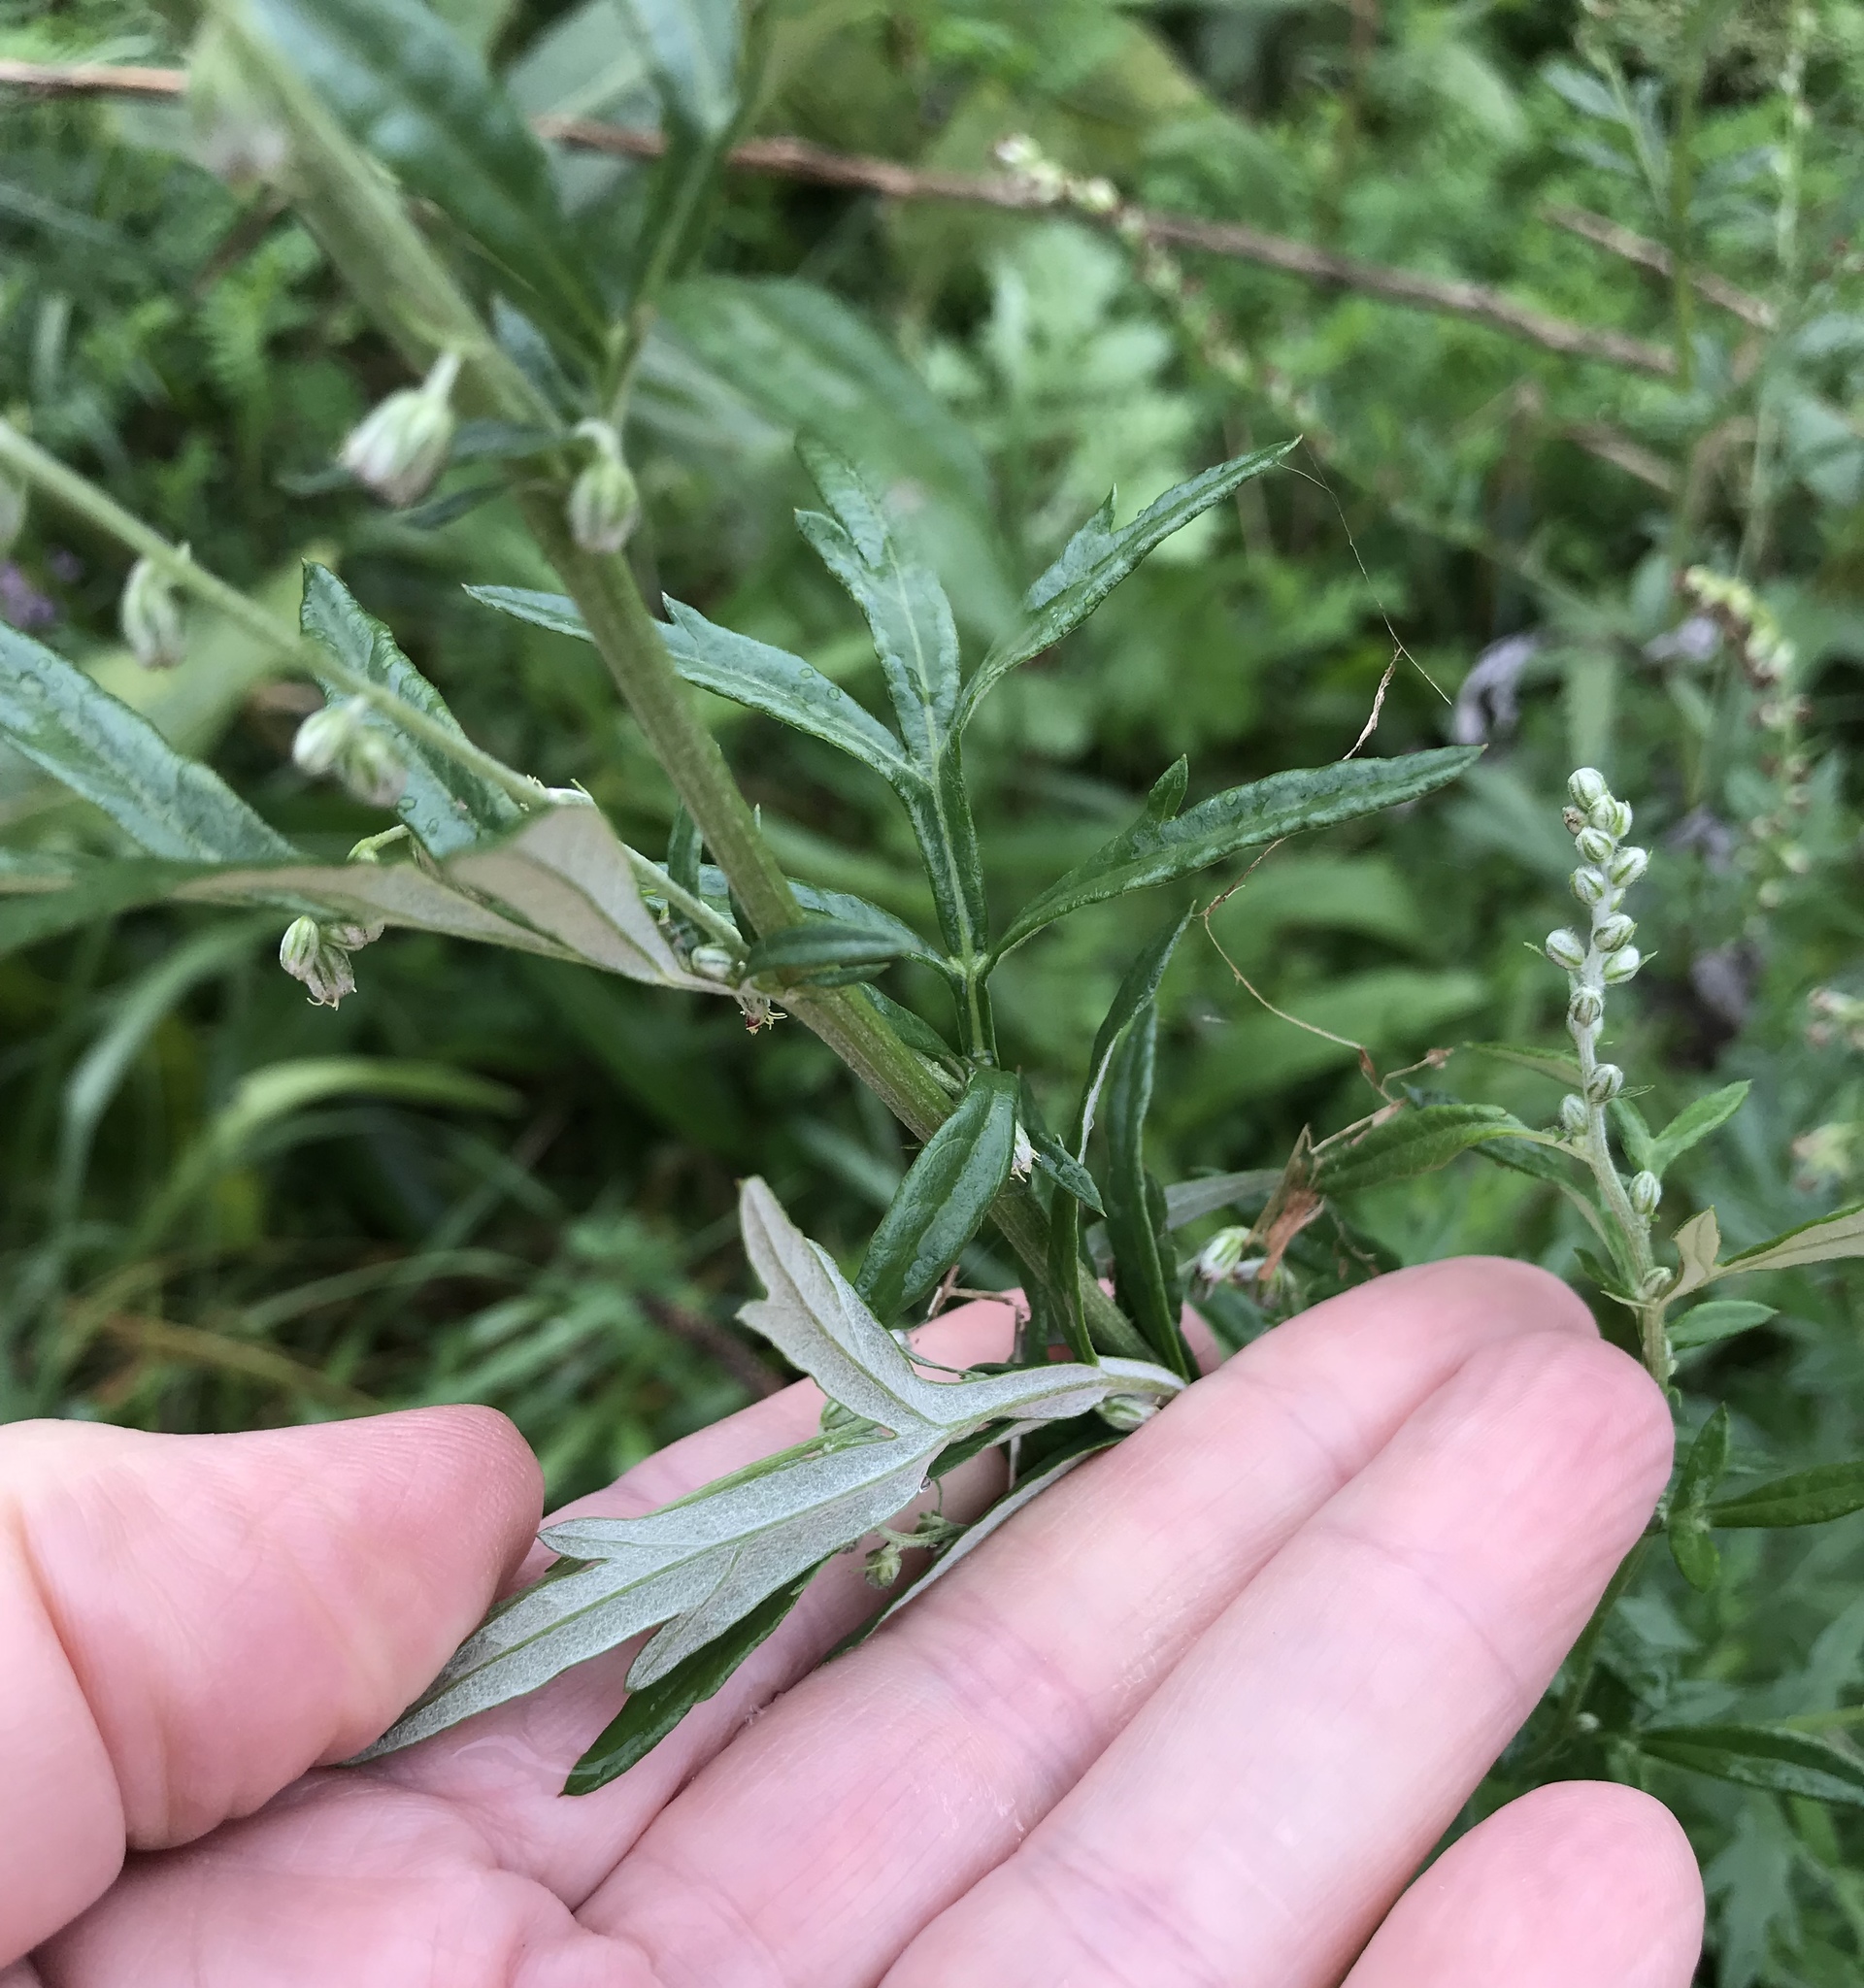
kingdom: Plantae
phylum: Tracheophyta
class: Magnoliopsida
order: Asterales
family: Asteraceae
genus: Artemisia
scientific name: Artemisia vulgaris
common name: Mugwort
